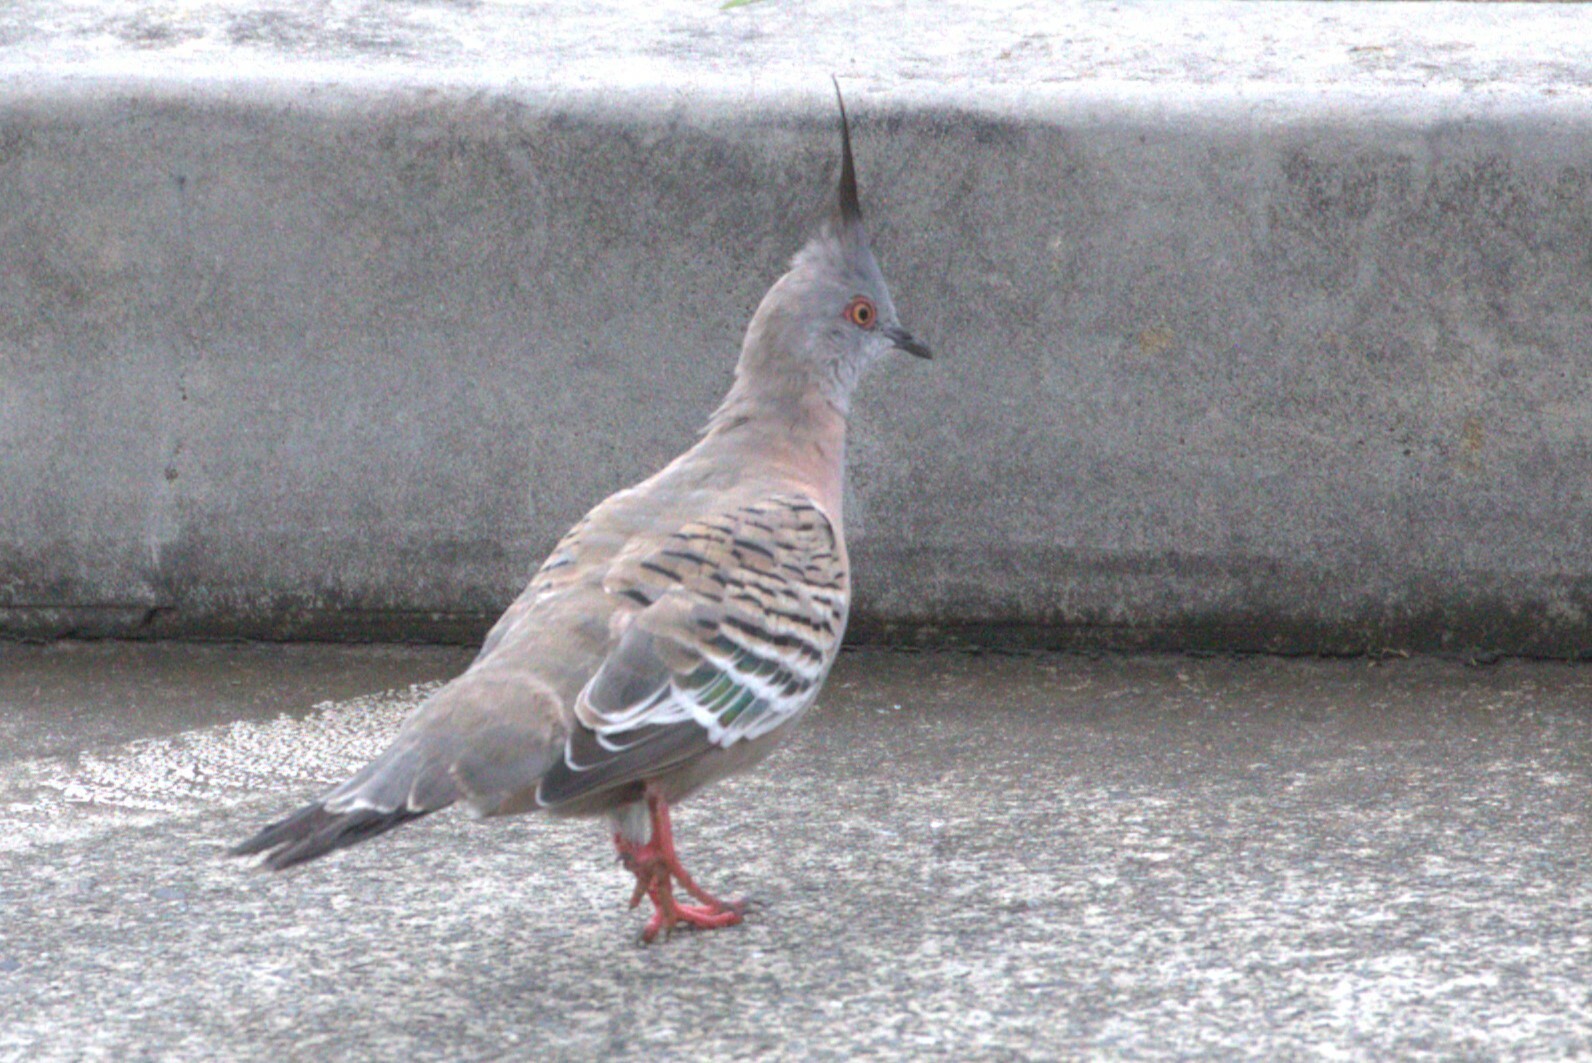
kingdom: Animalia
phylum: Chordata
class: Aves
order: Columbiformes
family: Columbidae
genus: Ocyphaps
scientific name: Ocyphaps lophotes
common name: Crested pigeon
